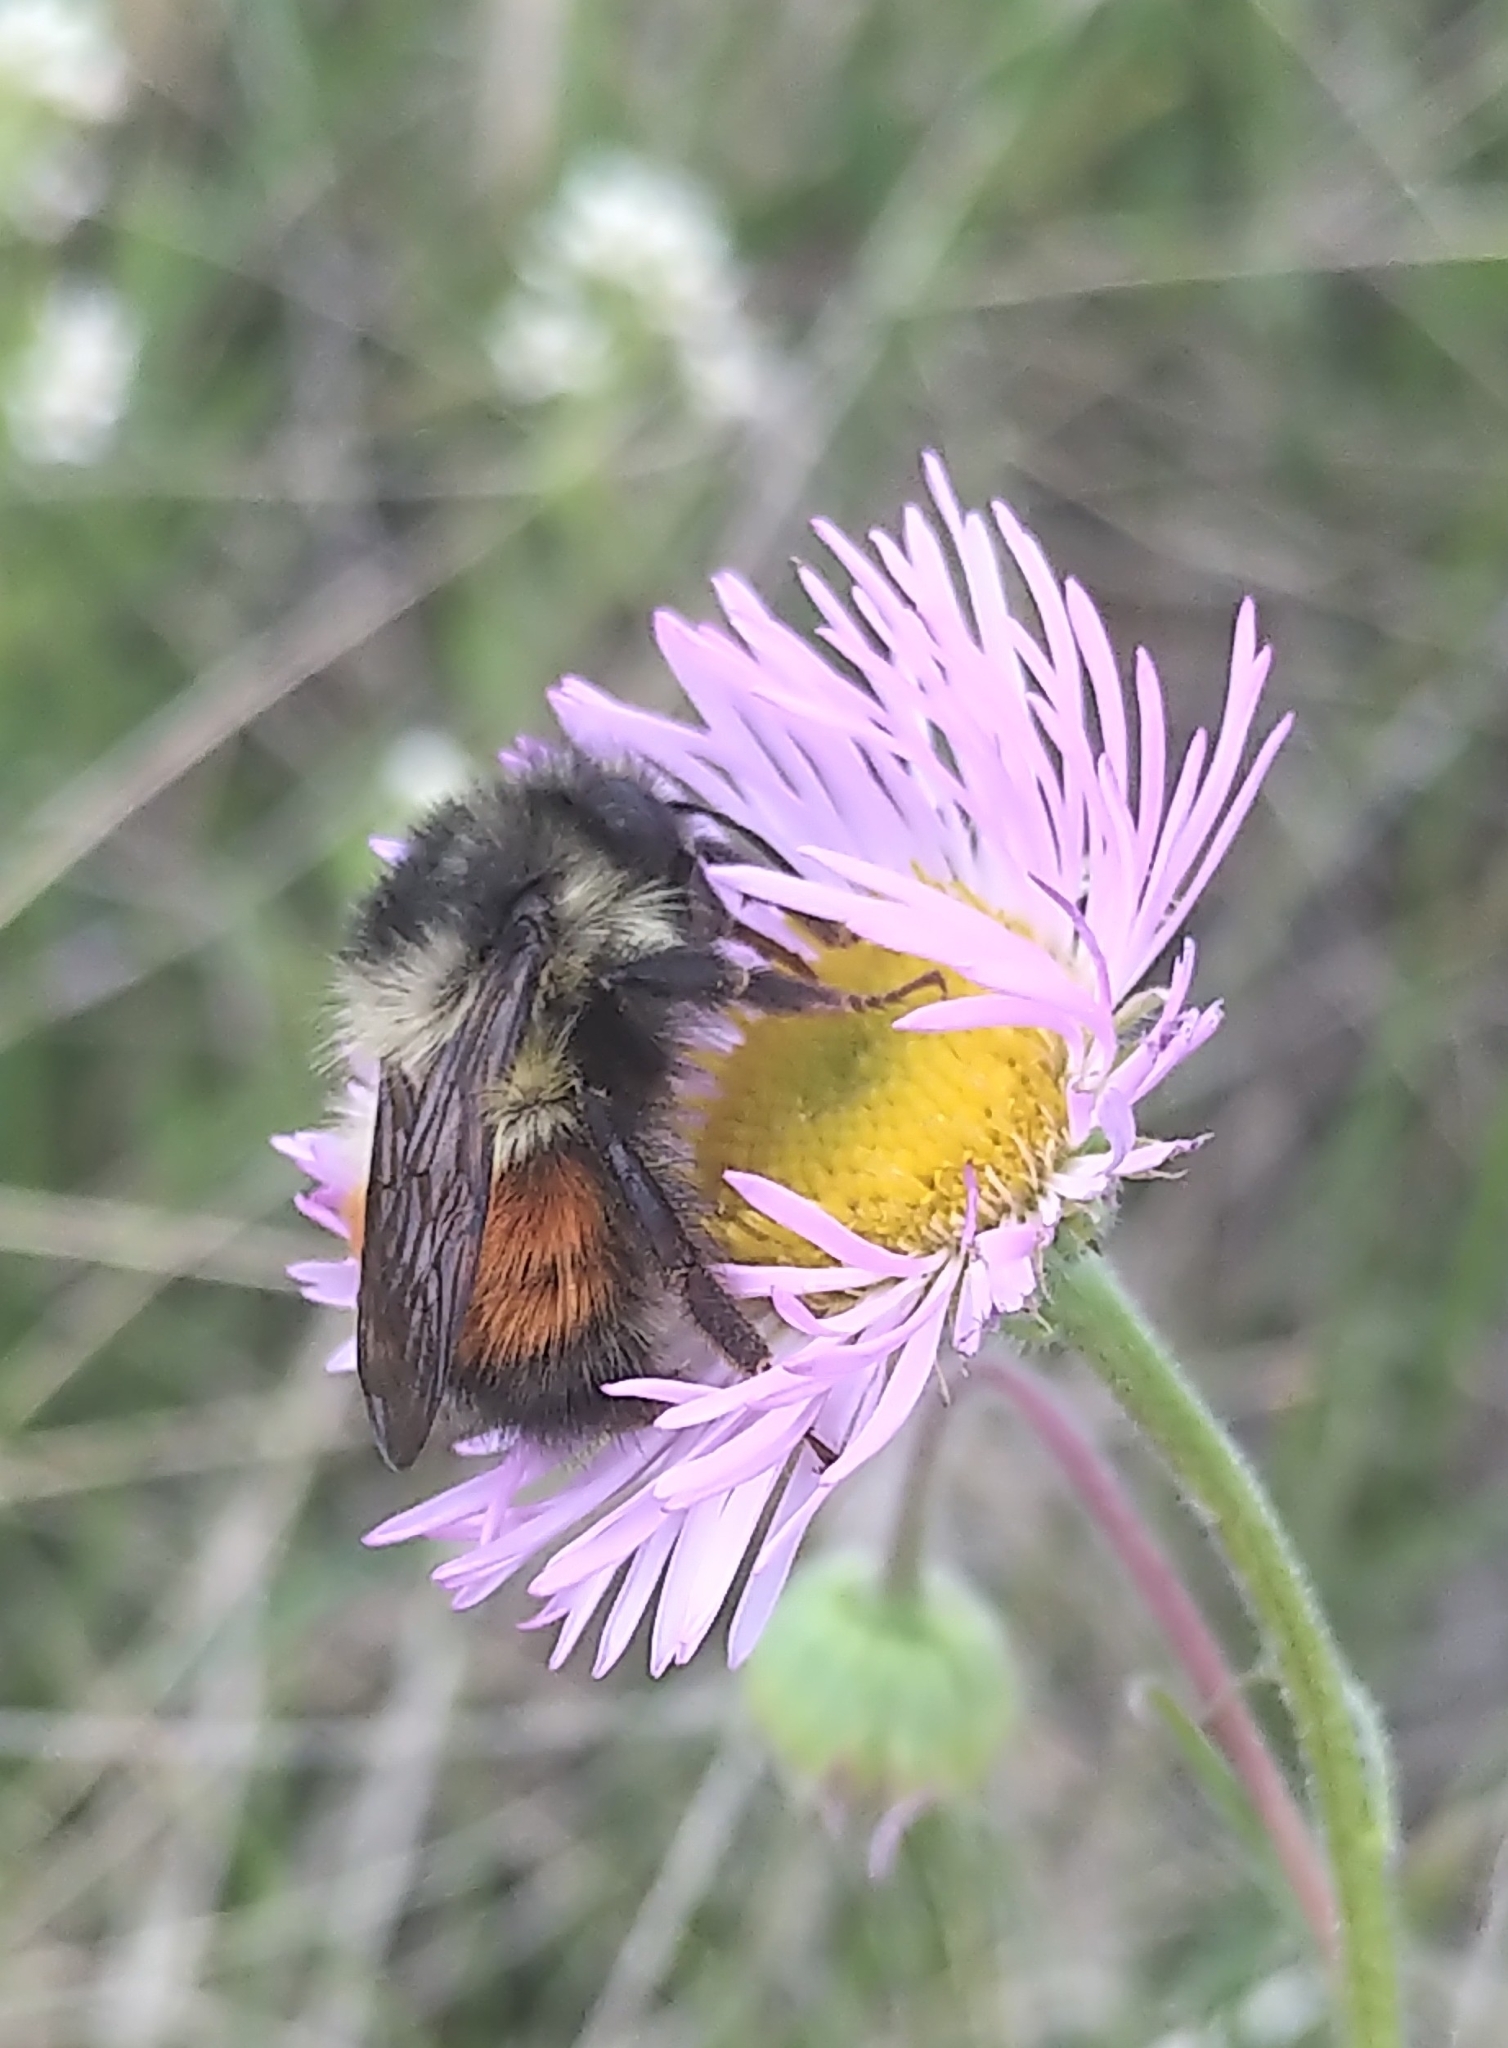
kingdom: Animalia
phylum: Arthropoda
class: Insecta
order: Hymenoptera
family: Apidae
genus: Bombus
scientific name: Bombus melanopygus
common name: Black tail bumble bee
